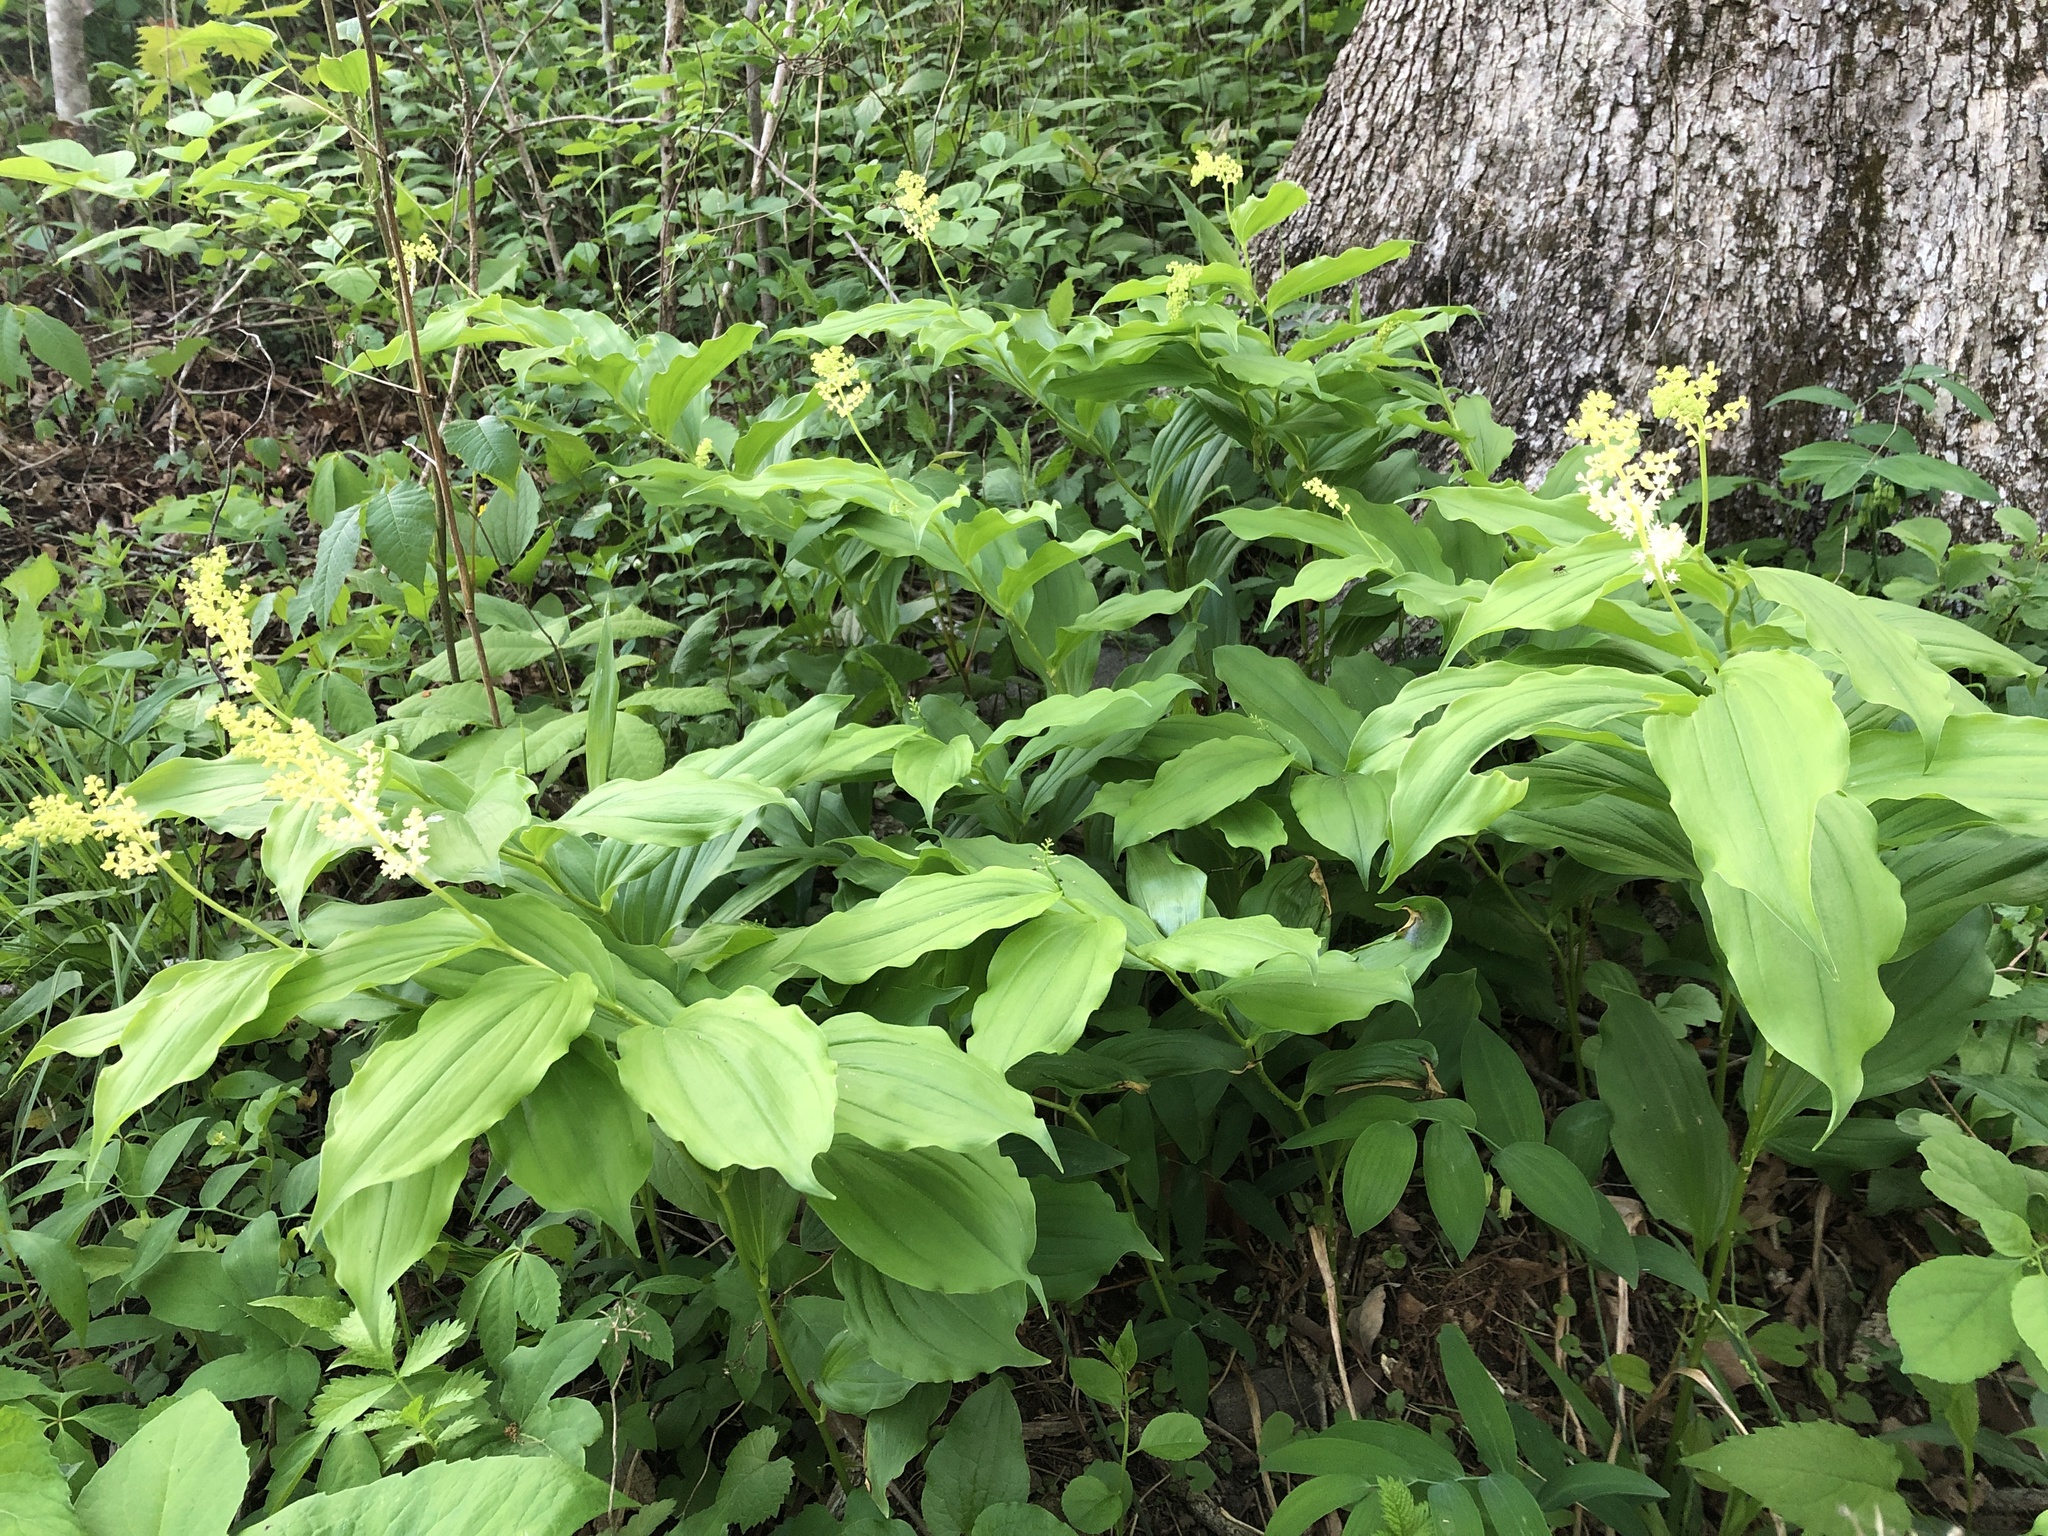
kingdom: Plantae
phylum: Tracheophyta
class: Liliopsida
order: Asparagales
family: Asparagaceae
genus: Maianthemum
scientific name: Maianthemum racemosum
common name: False spikenard
